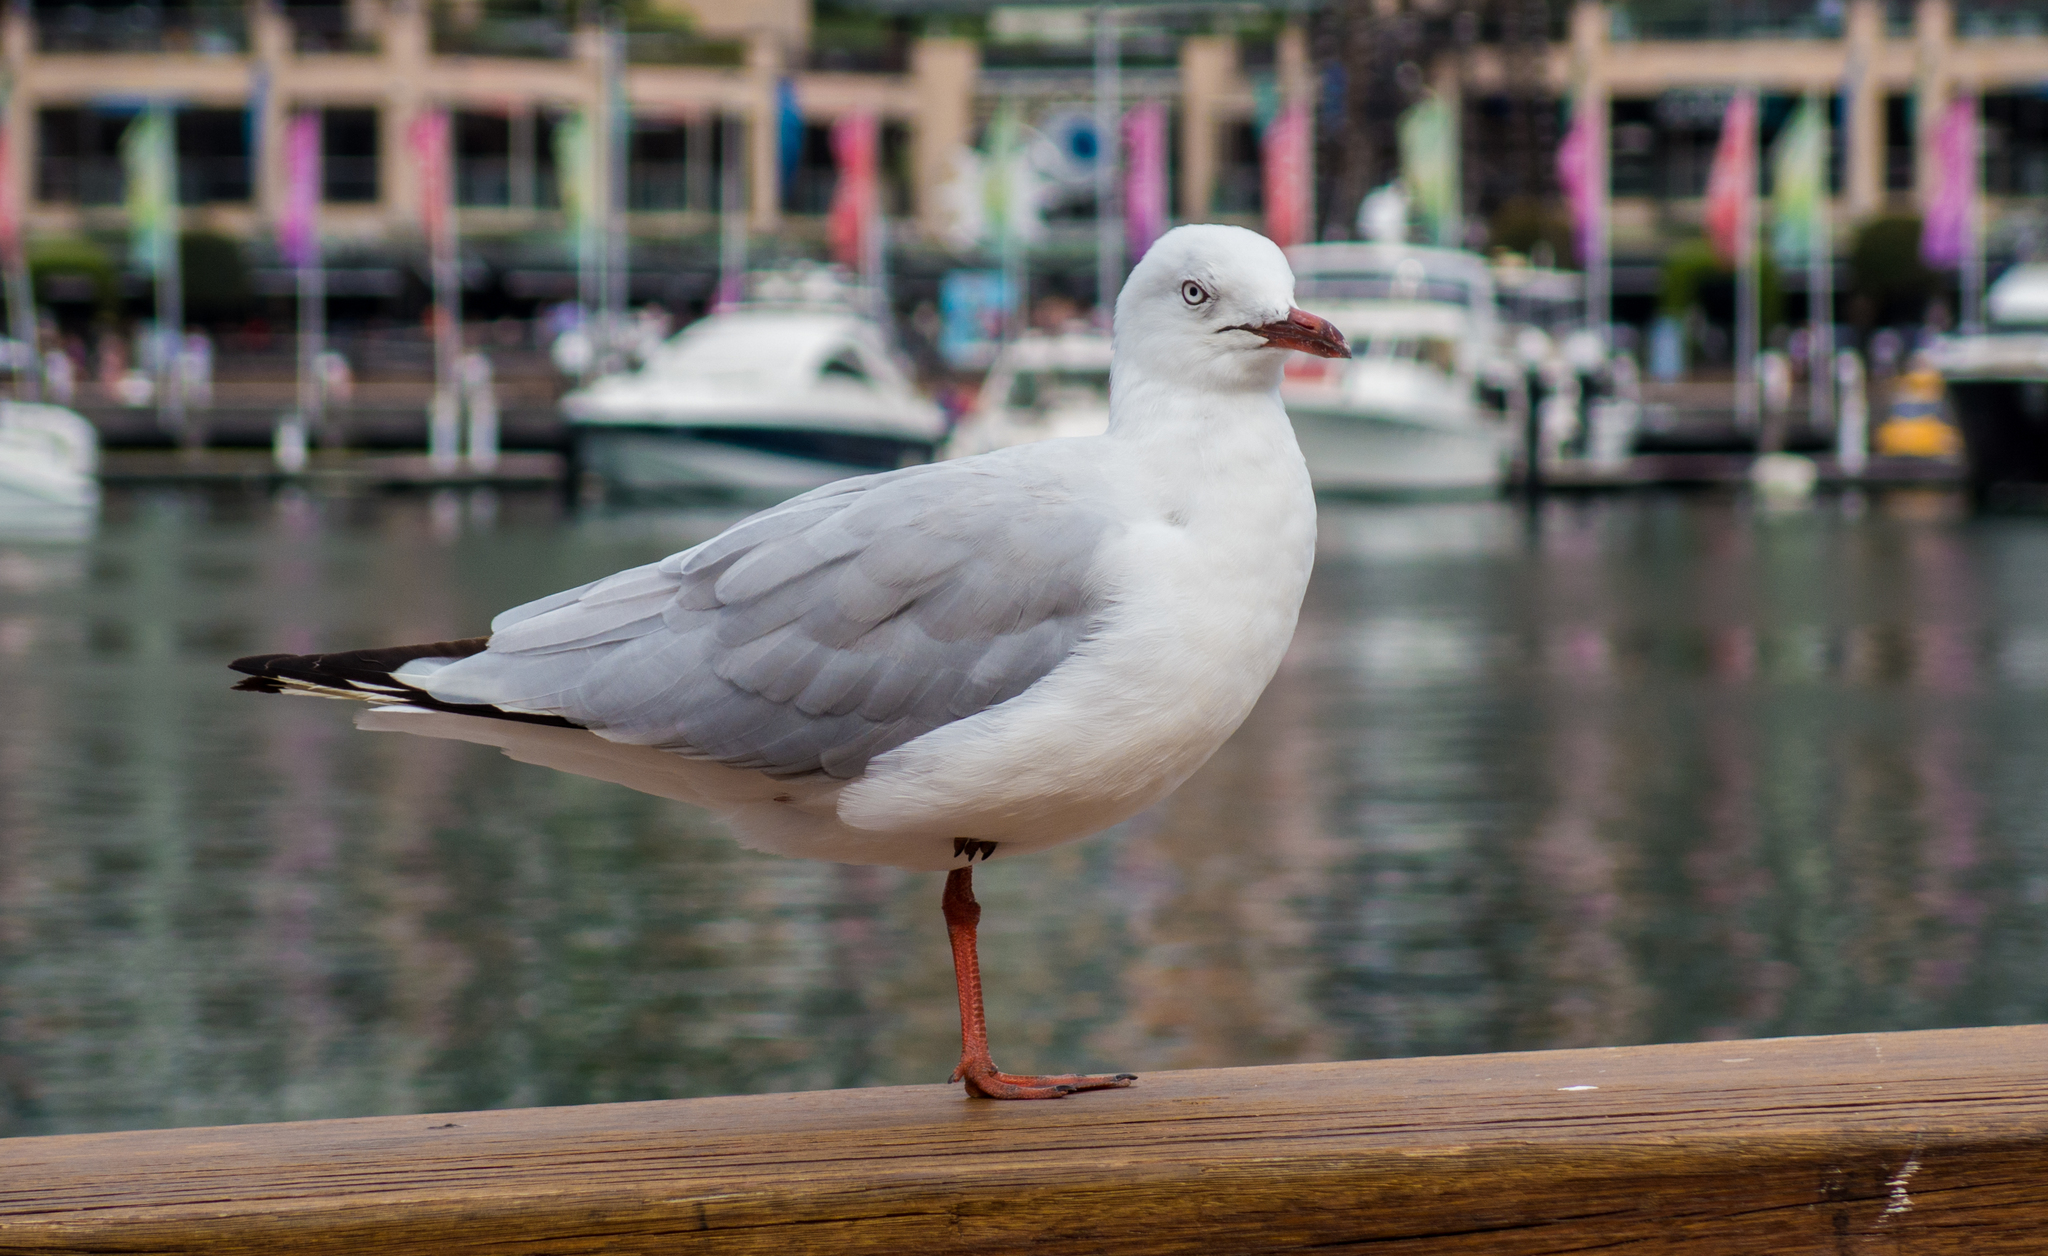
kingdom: Animalia
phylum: Chordata
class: Aves
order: Charadriiformes
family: Laridae
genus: Chroicocephalus
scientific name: Chroicocephalus novaehollandiae
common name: Silver gull
